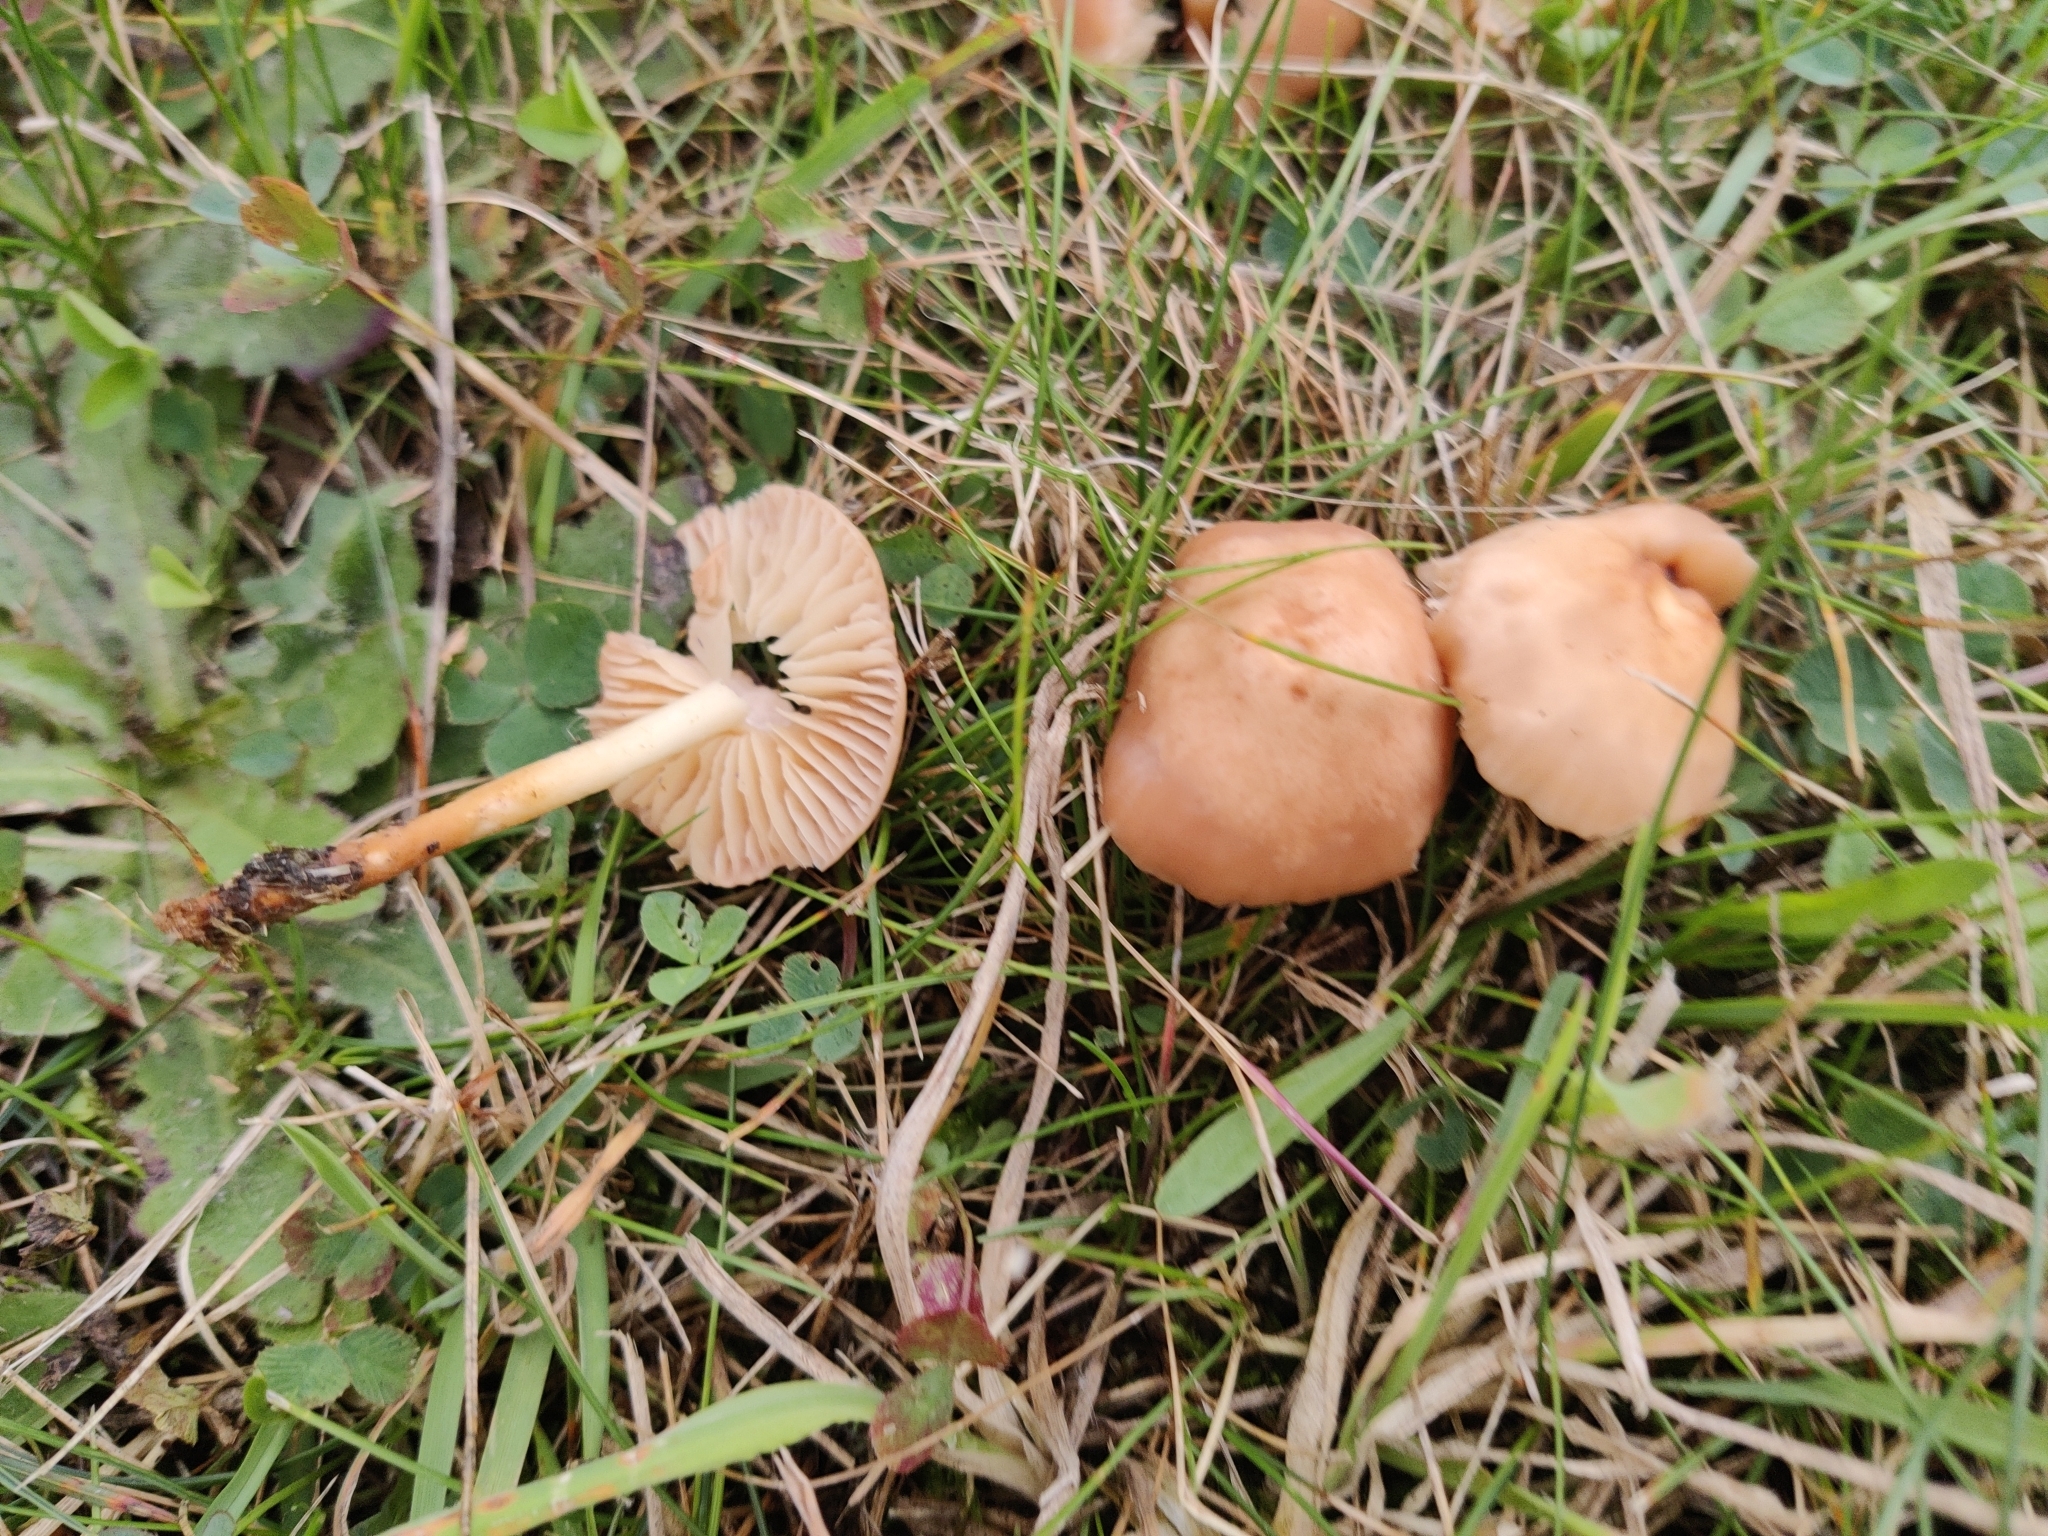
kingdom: Fungi
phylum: Basidiomycota
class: Agaricomycetes
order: Agaricales
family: Marasmiaceae
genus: Marasmius
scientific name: Marasmius oreades
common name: Fairy ring champignon
